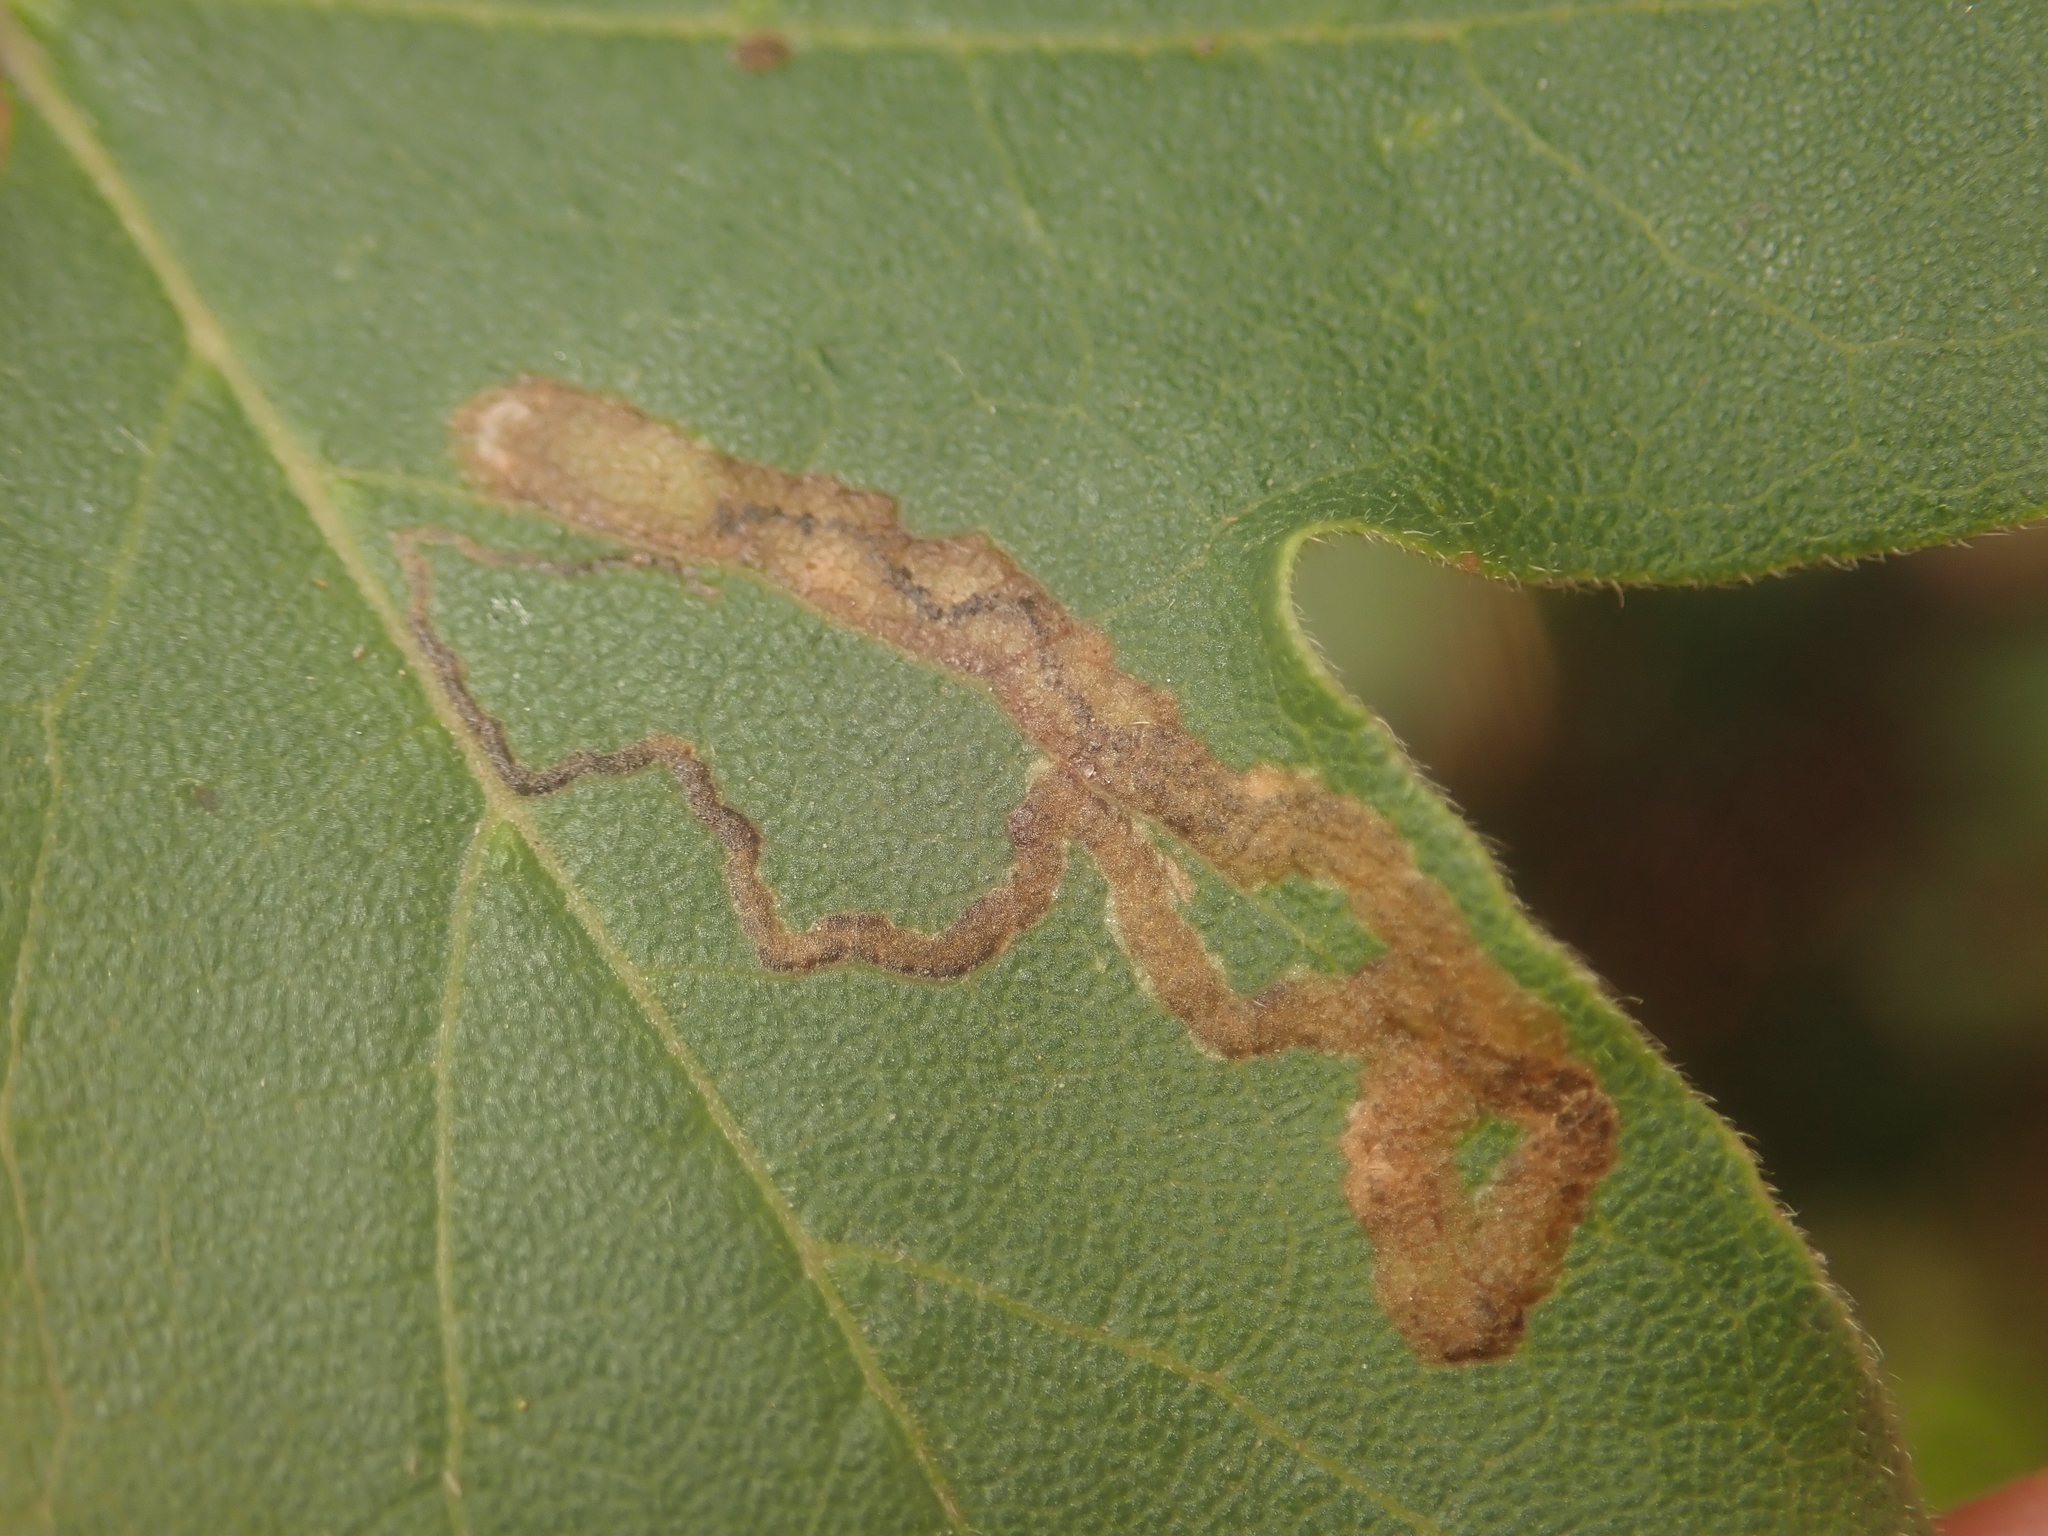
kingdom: Animalia
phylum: Arthropoda
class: Insecta
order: Lepidoptera
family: Nepticulidae
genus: Stigmella
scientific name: Stigmella aceris
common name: Scarce maple pigmy
